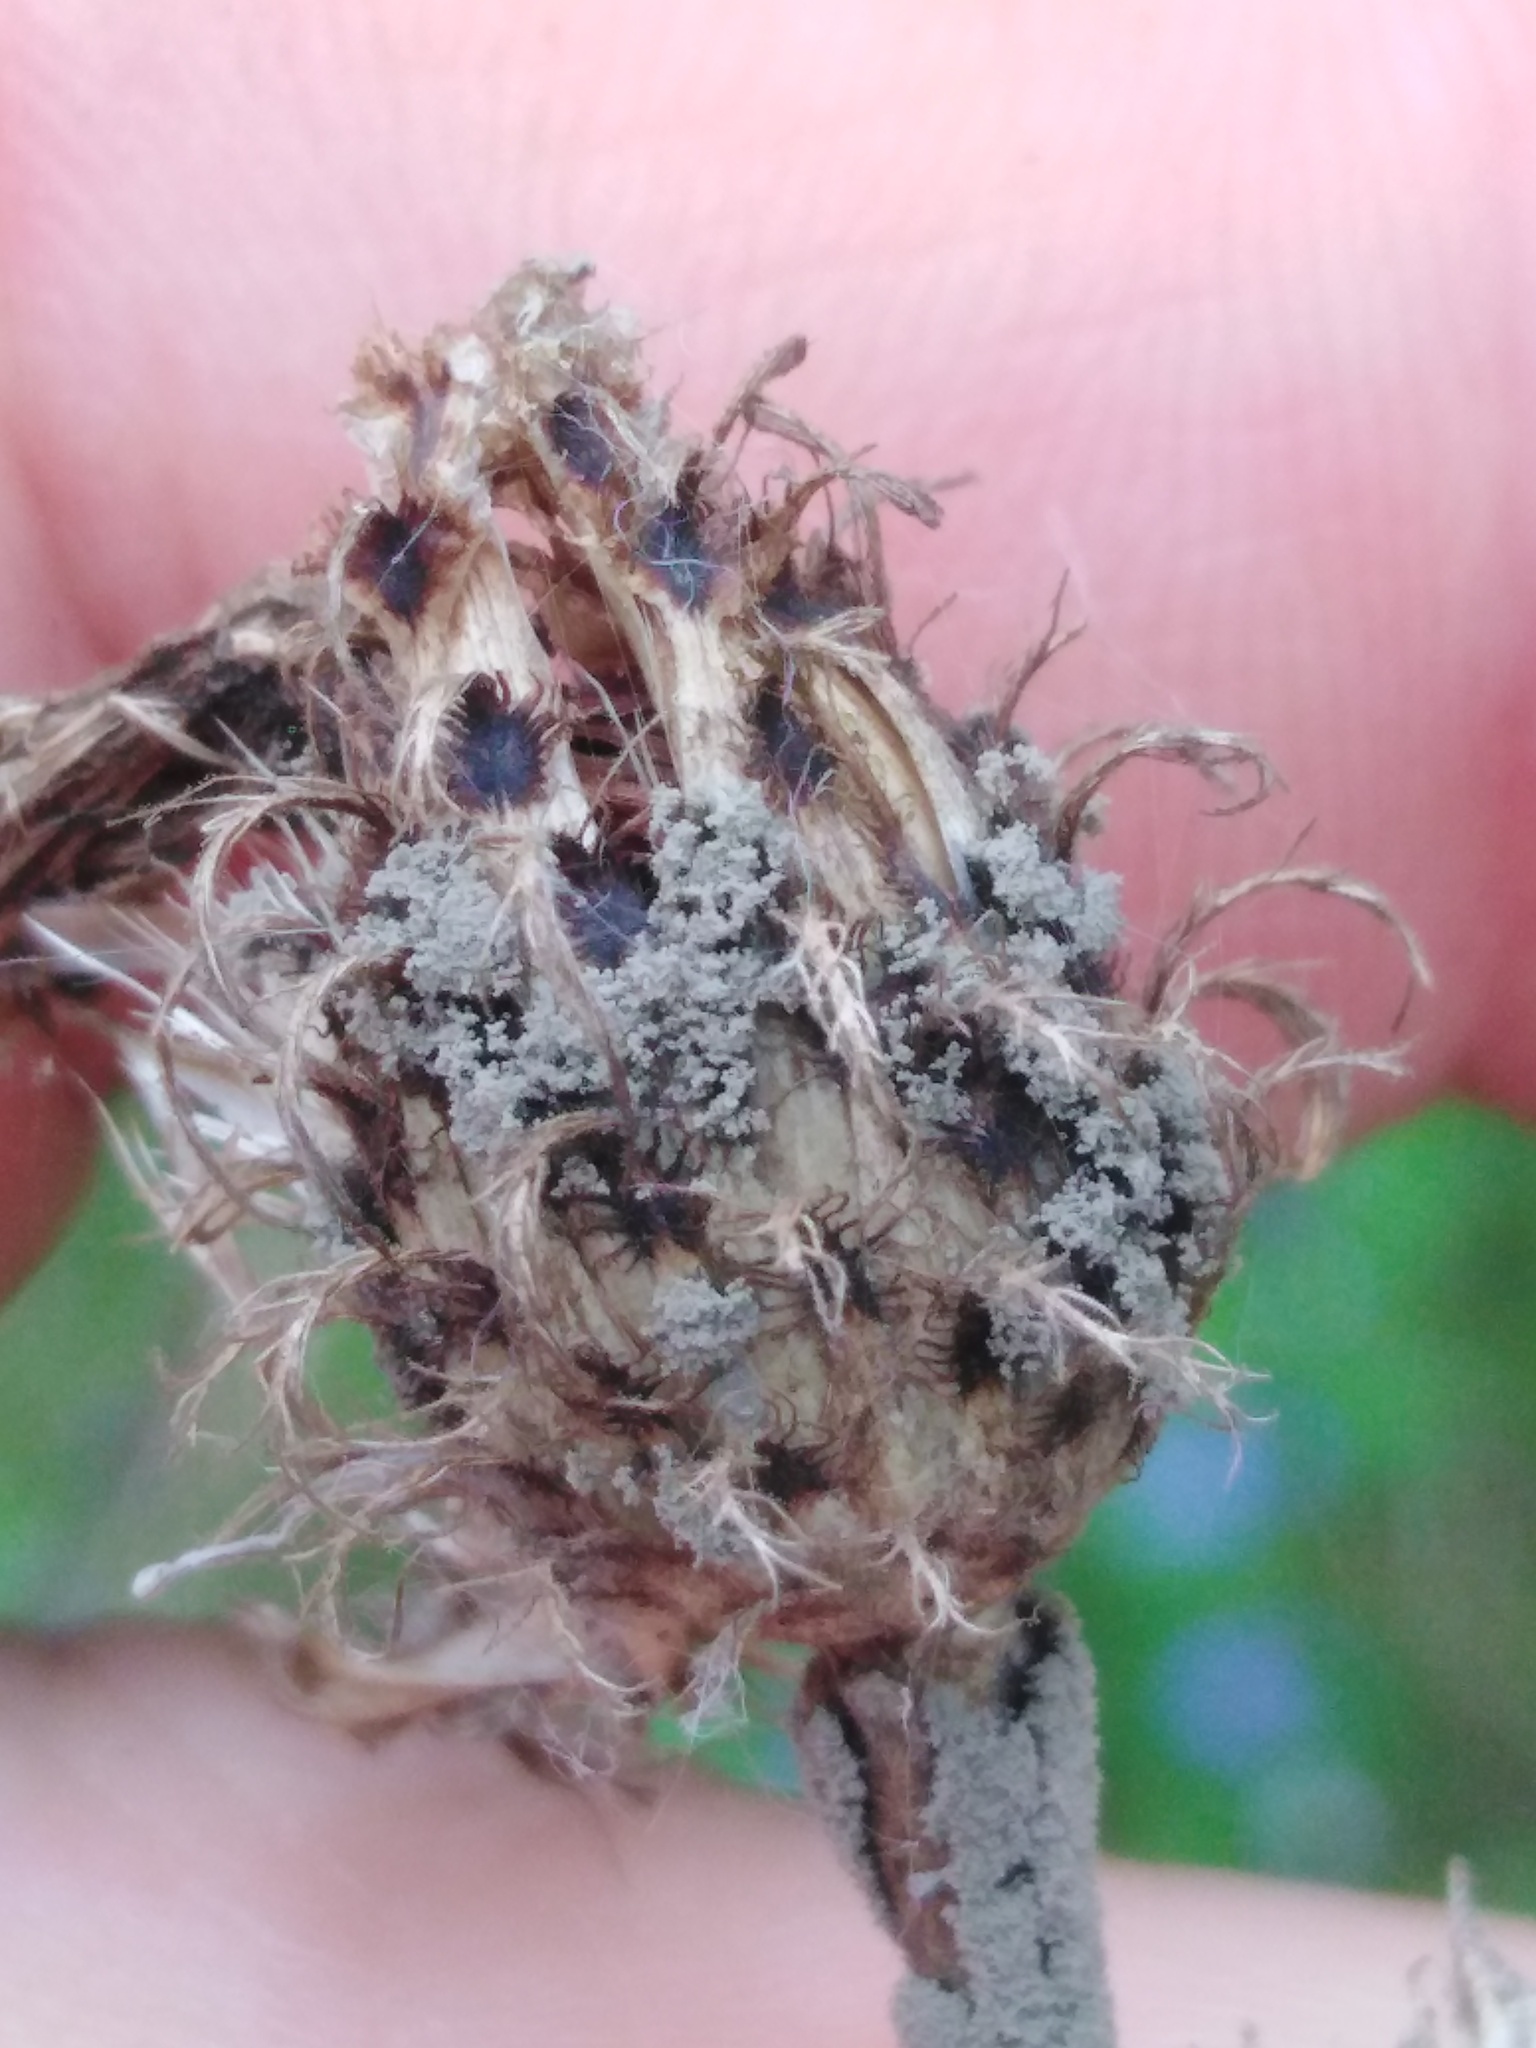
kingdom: Plantae
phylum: Tracheophyta
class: Magnoliopsida
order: Asterales
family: Asteraceae
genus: Centaurea
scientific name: Centaurea phrygia
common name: Wig knapweed
